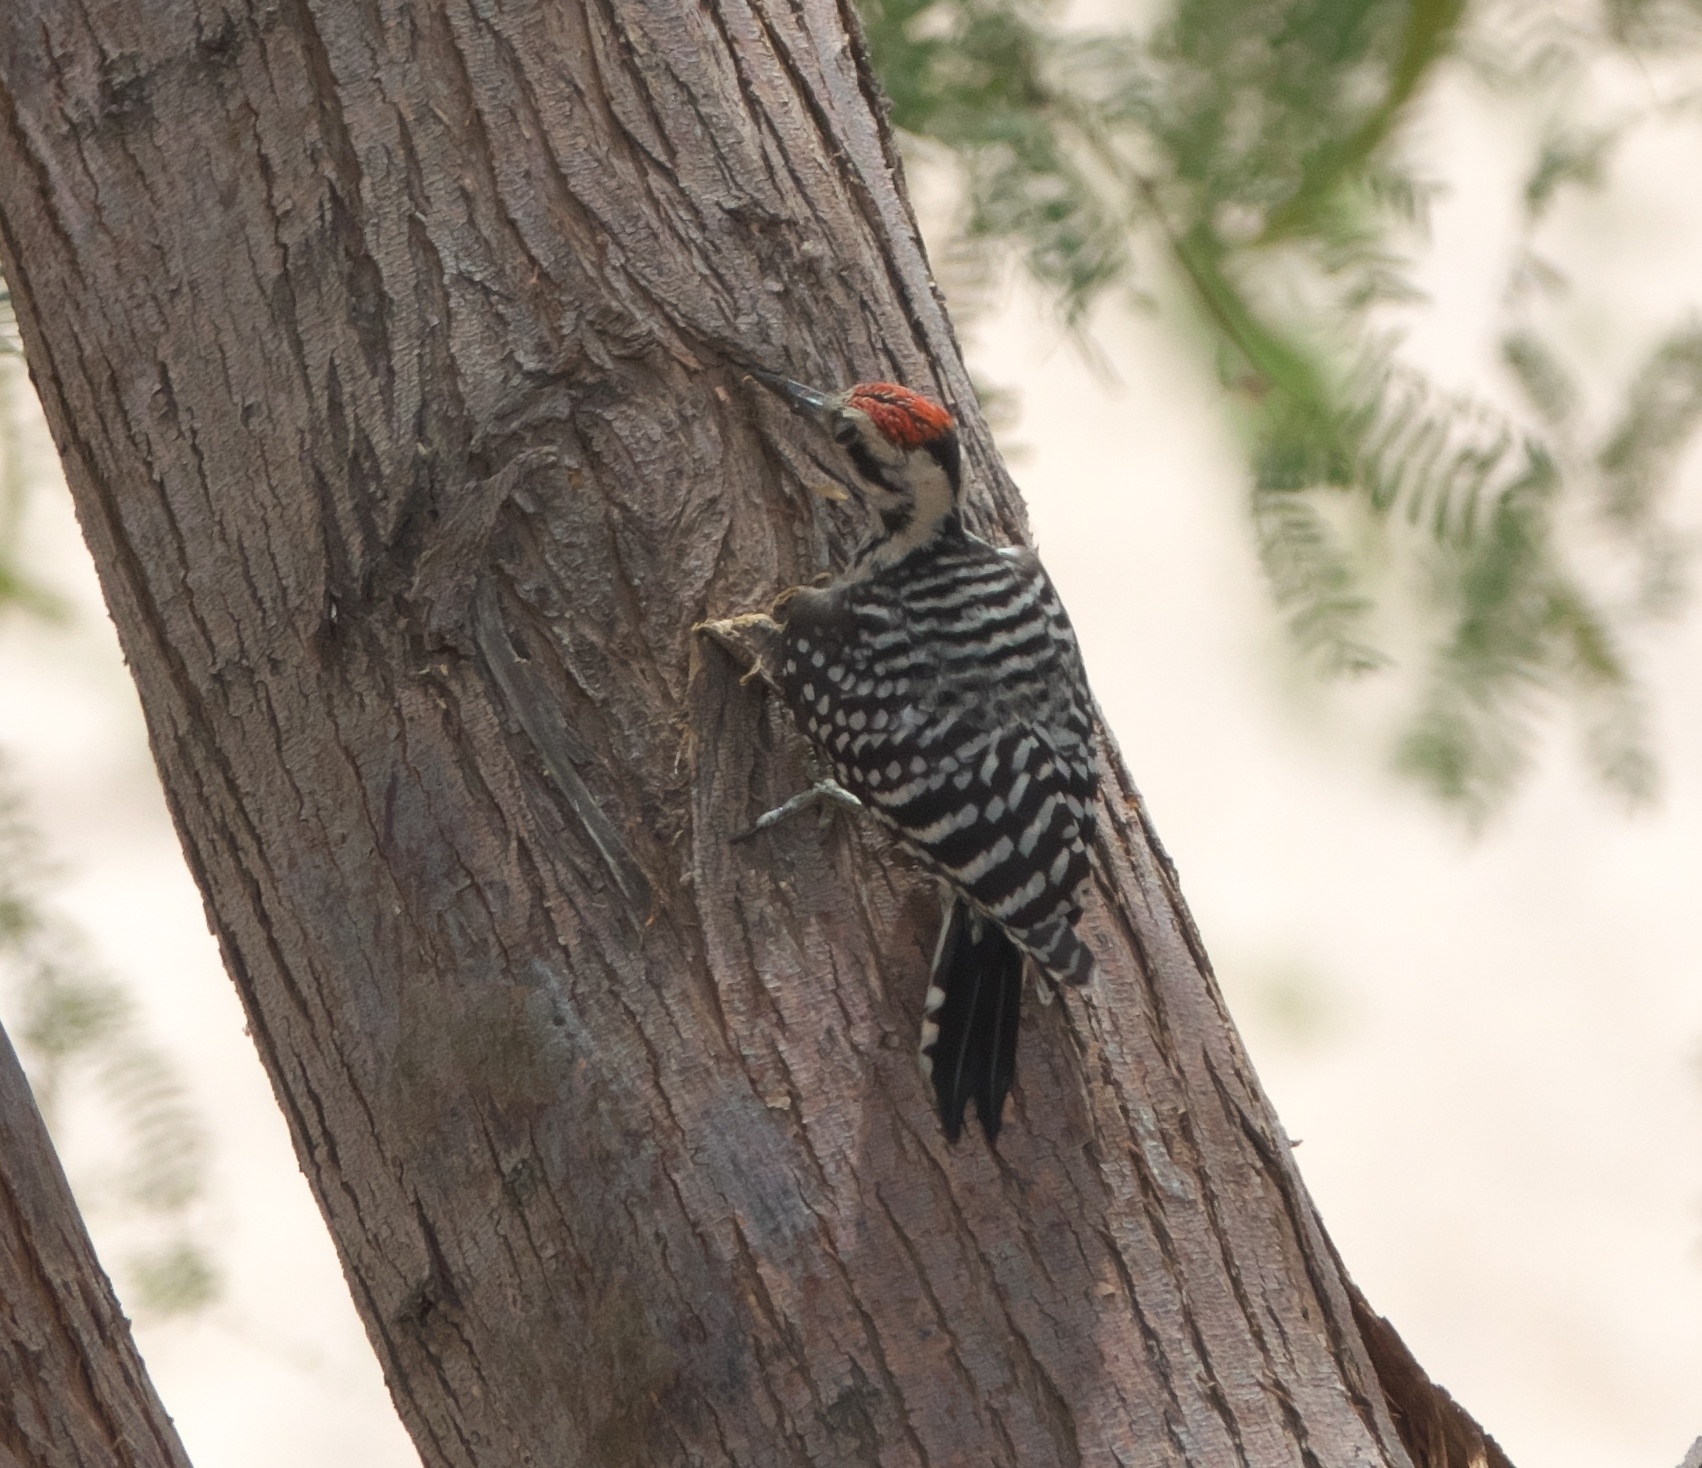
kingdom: Animalia
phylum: Chordata
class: Aves
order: Piciformes
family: Picidae
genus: Dryobates
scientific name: Dryobates scalaris
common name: Ladder-backed woodpecker
